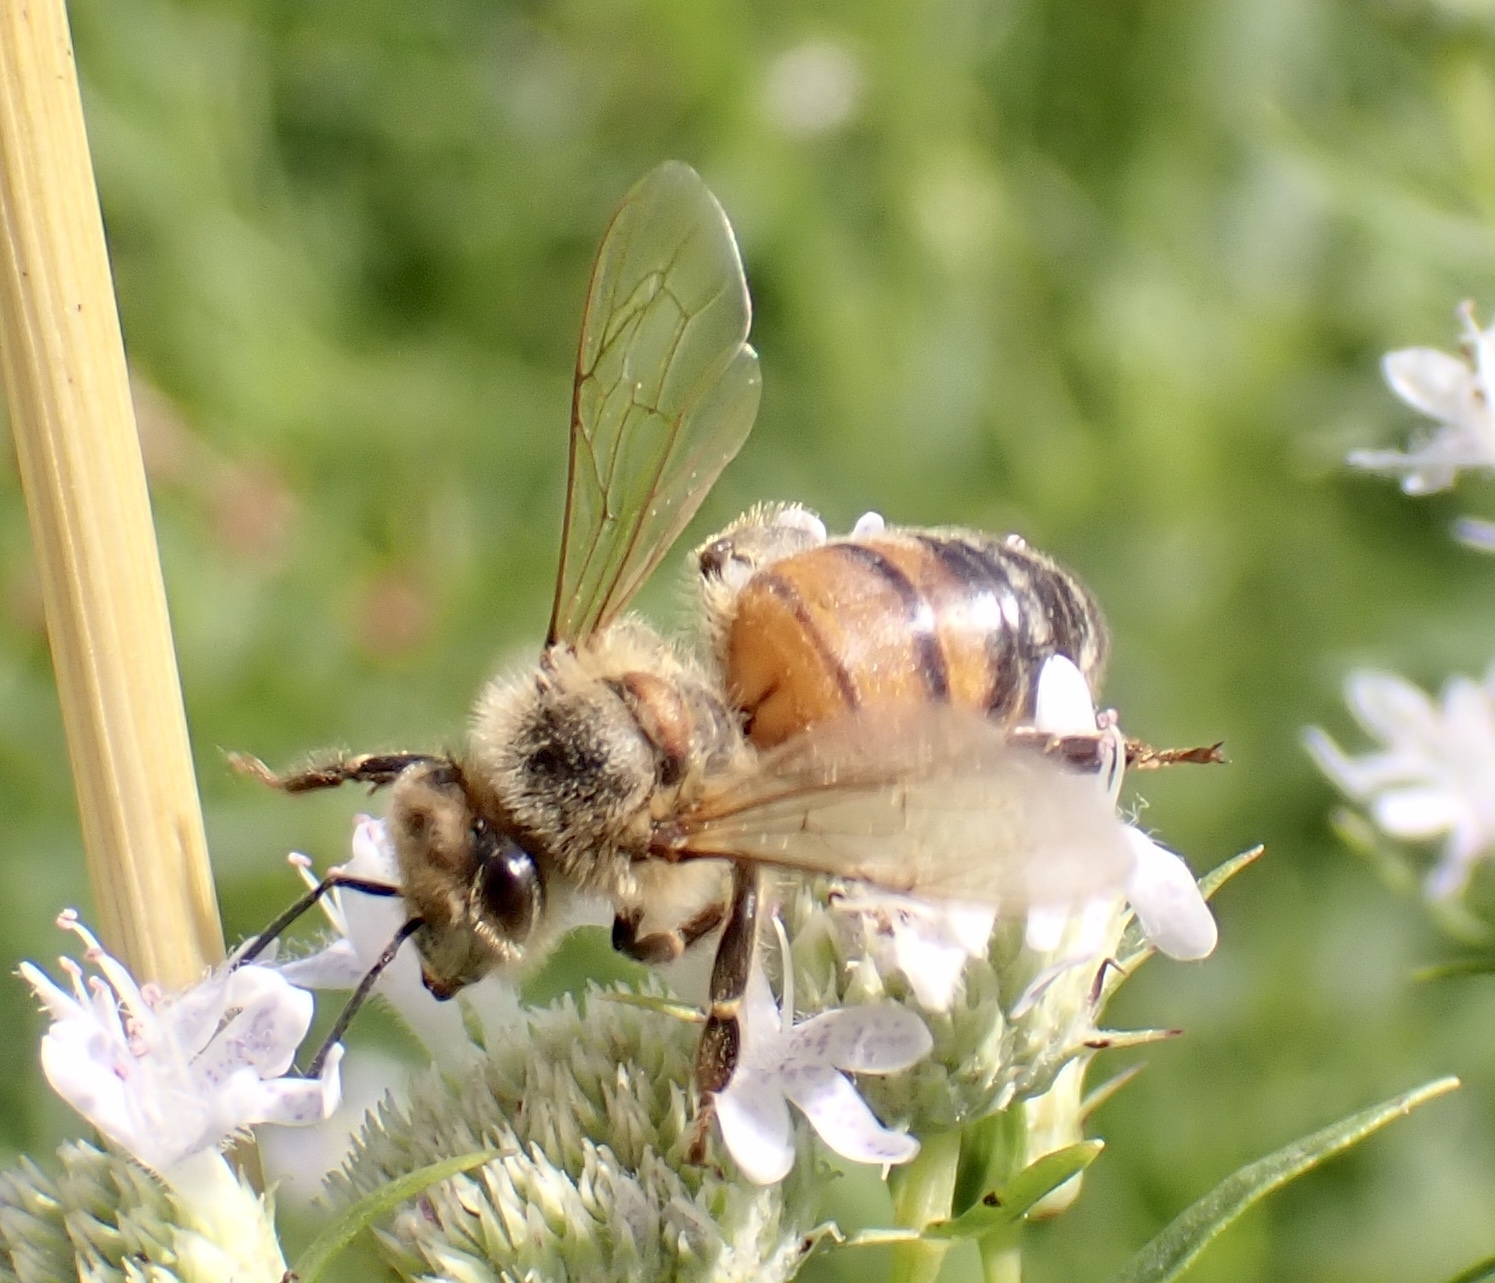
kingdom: Animalia
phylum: Arthropoda
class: Insecta
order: Hymenoptera
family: Apidae
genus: Apis
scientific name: Apis mellifera
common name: Honey bee
